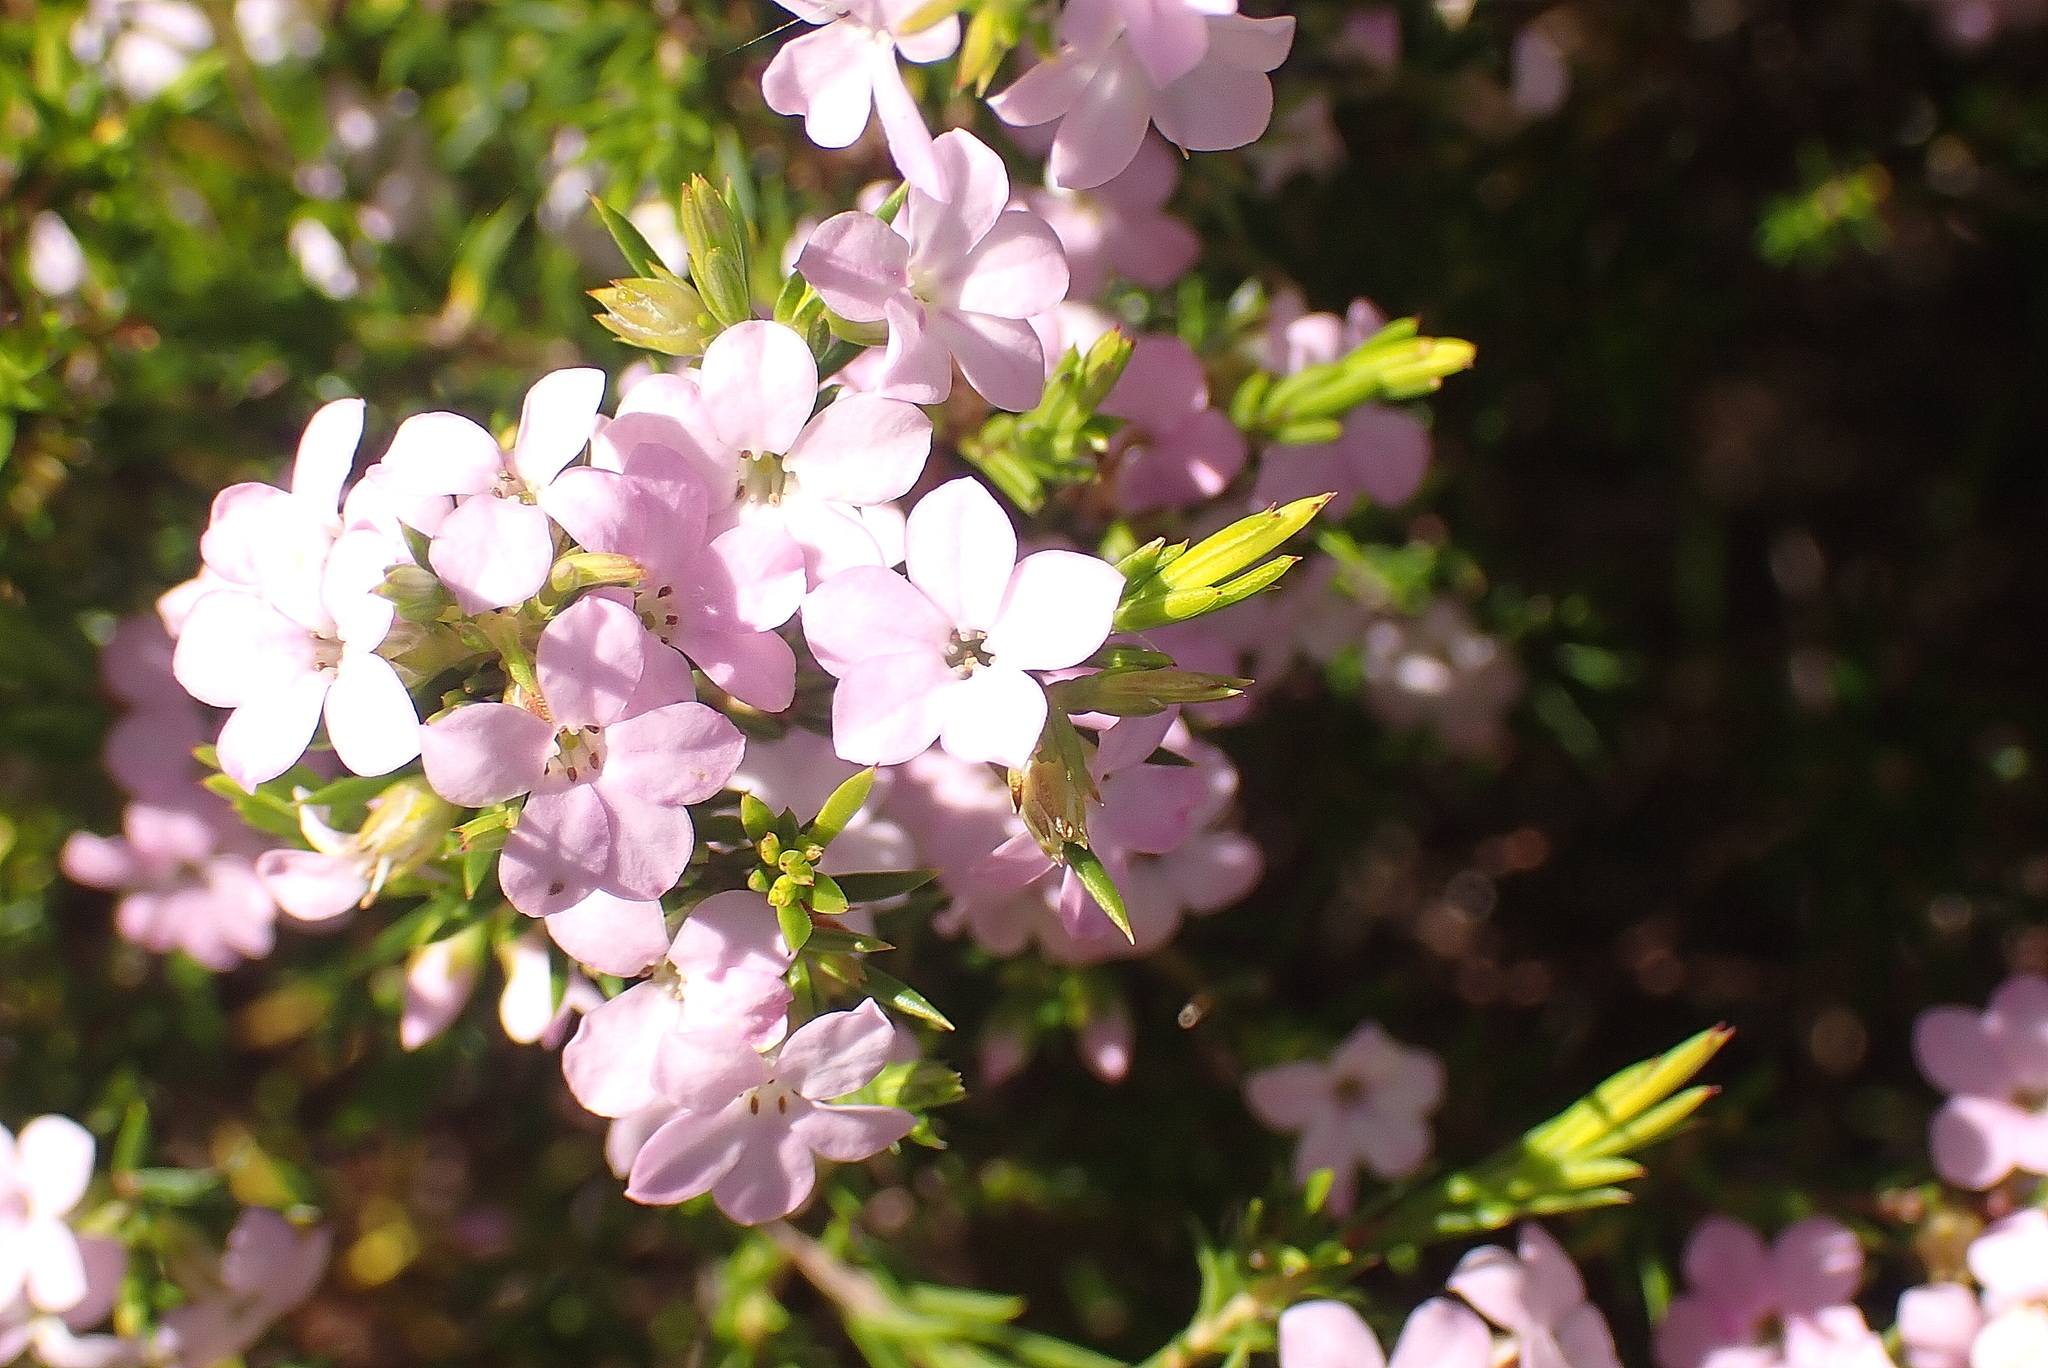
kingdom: Plantae
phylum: Tracheophyta
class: Magnoliopsida
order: Sapindales
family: Rutaceae
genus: Coleonema
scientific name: Coleonema pulchellum
